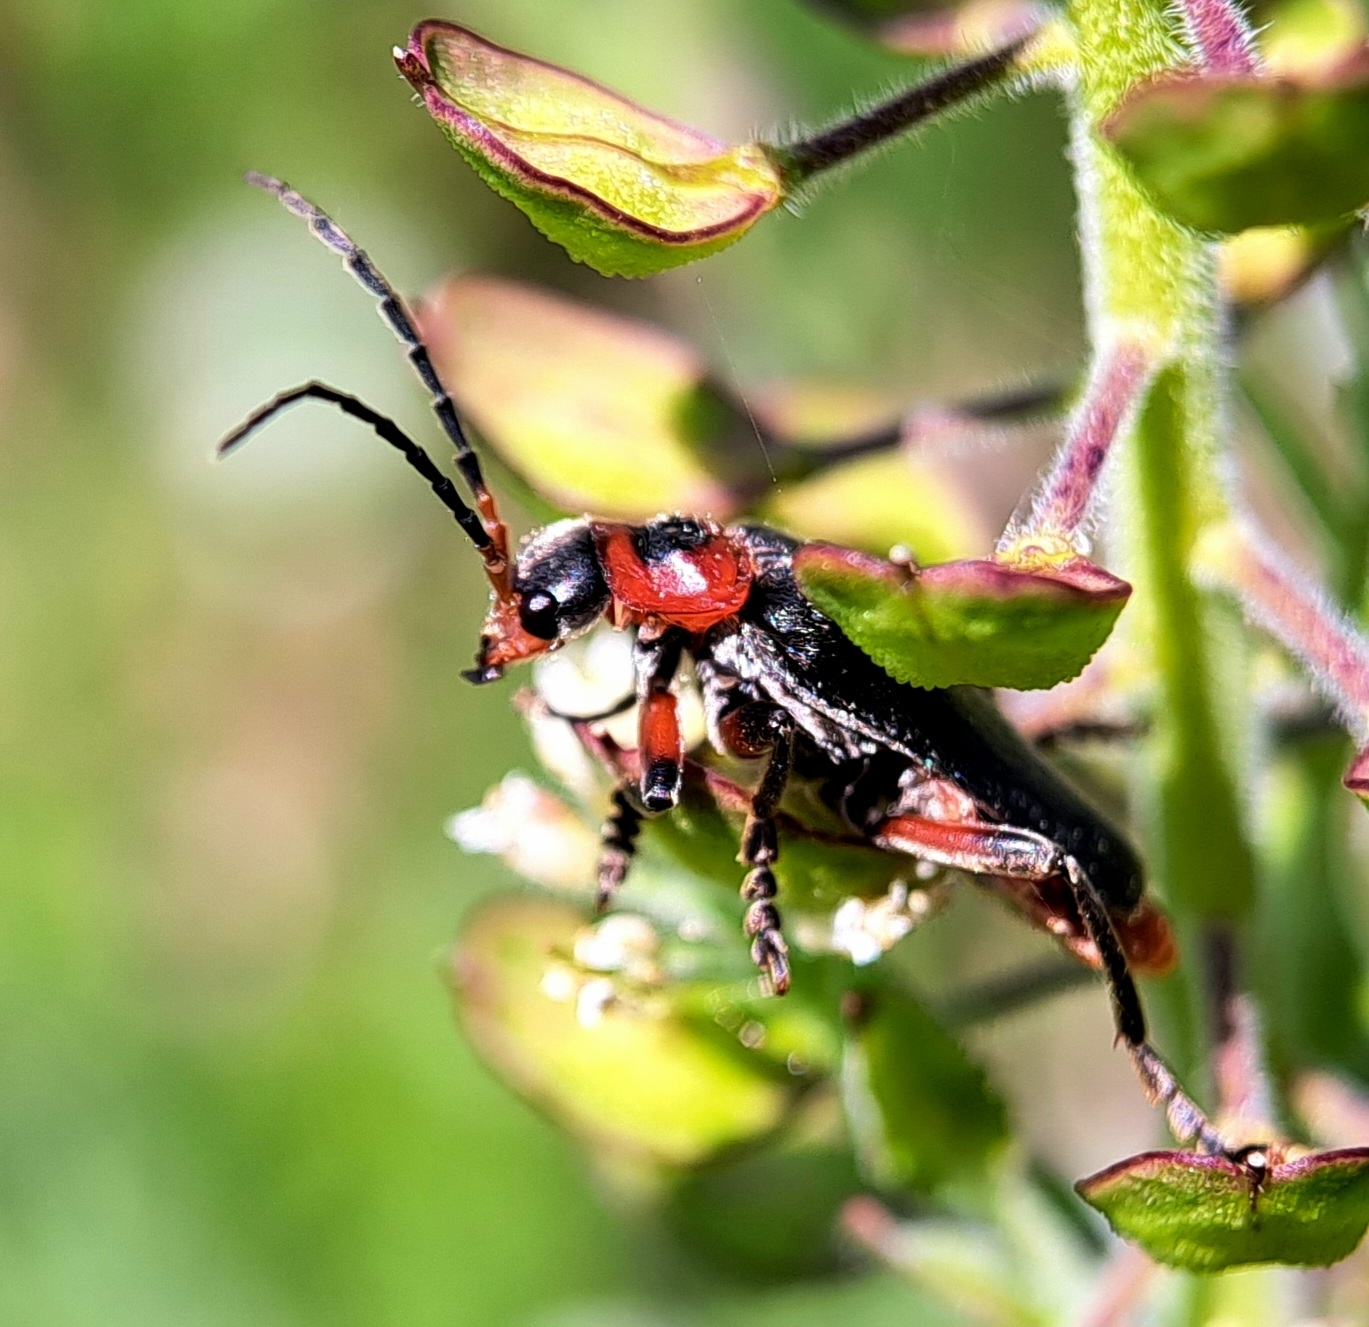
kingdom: Animalia
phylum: Arthropoda
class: Insecta
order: Coleoptera
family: Cantharidae
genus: Cantharis
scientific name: Cantharis rustica
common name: Soldier beetle
